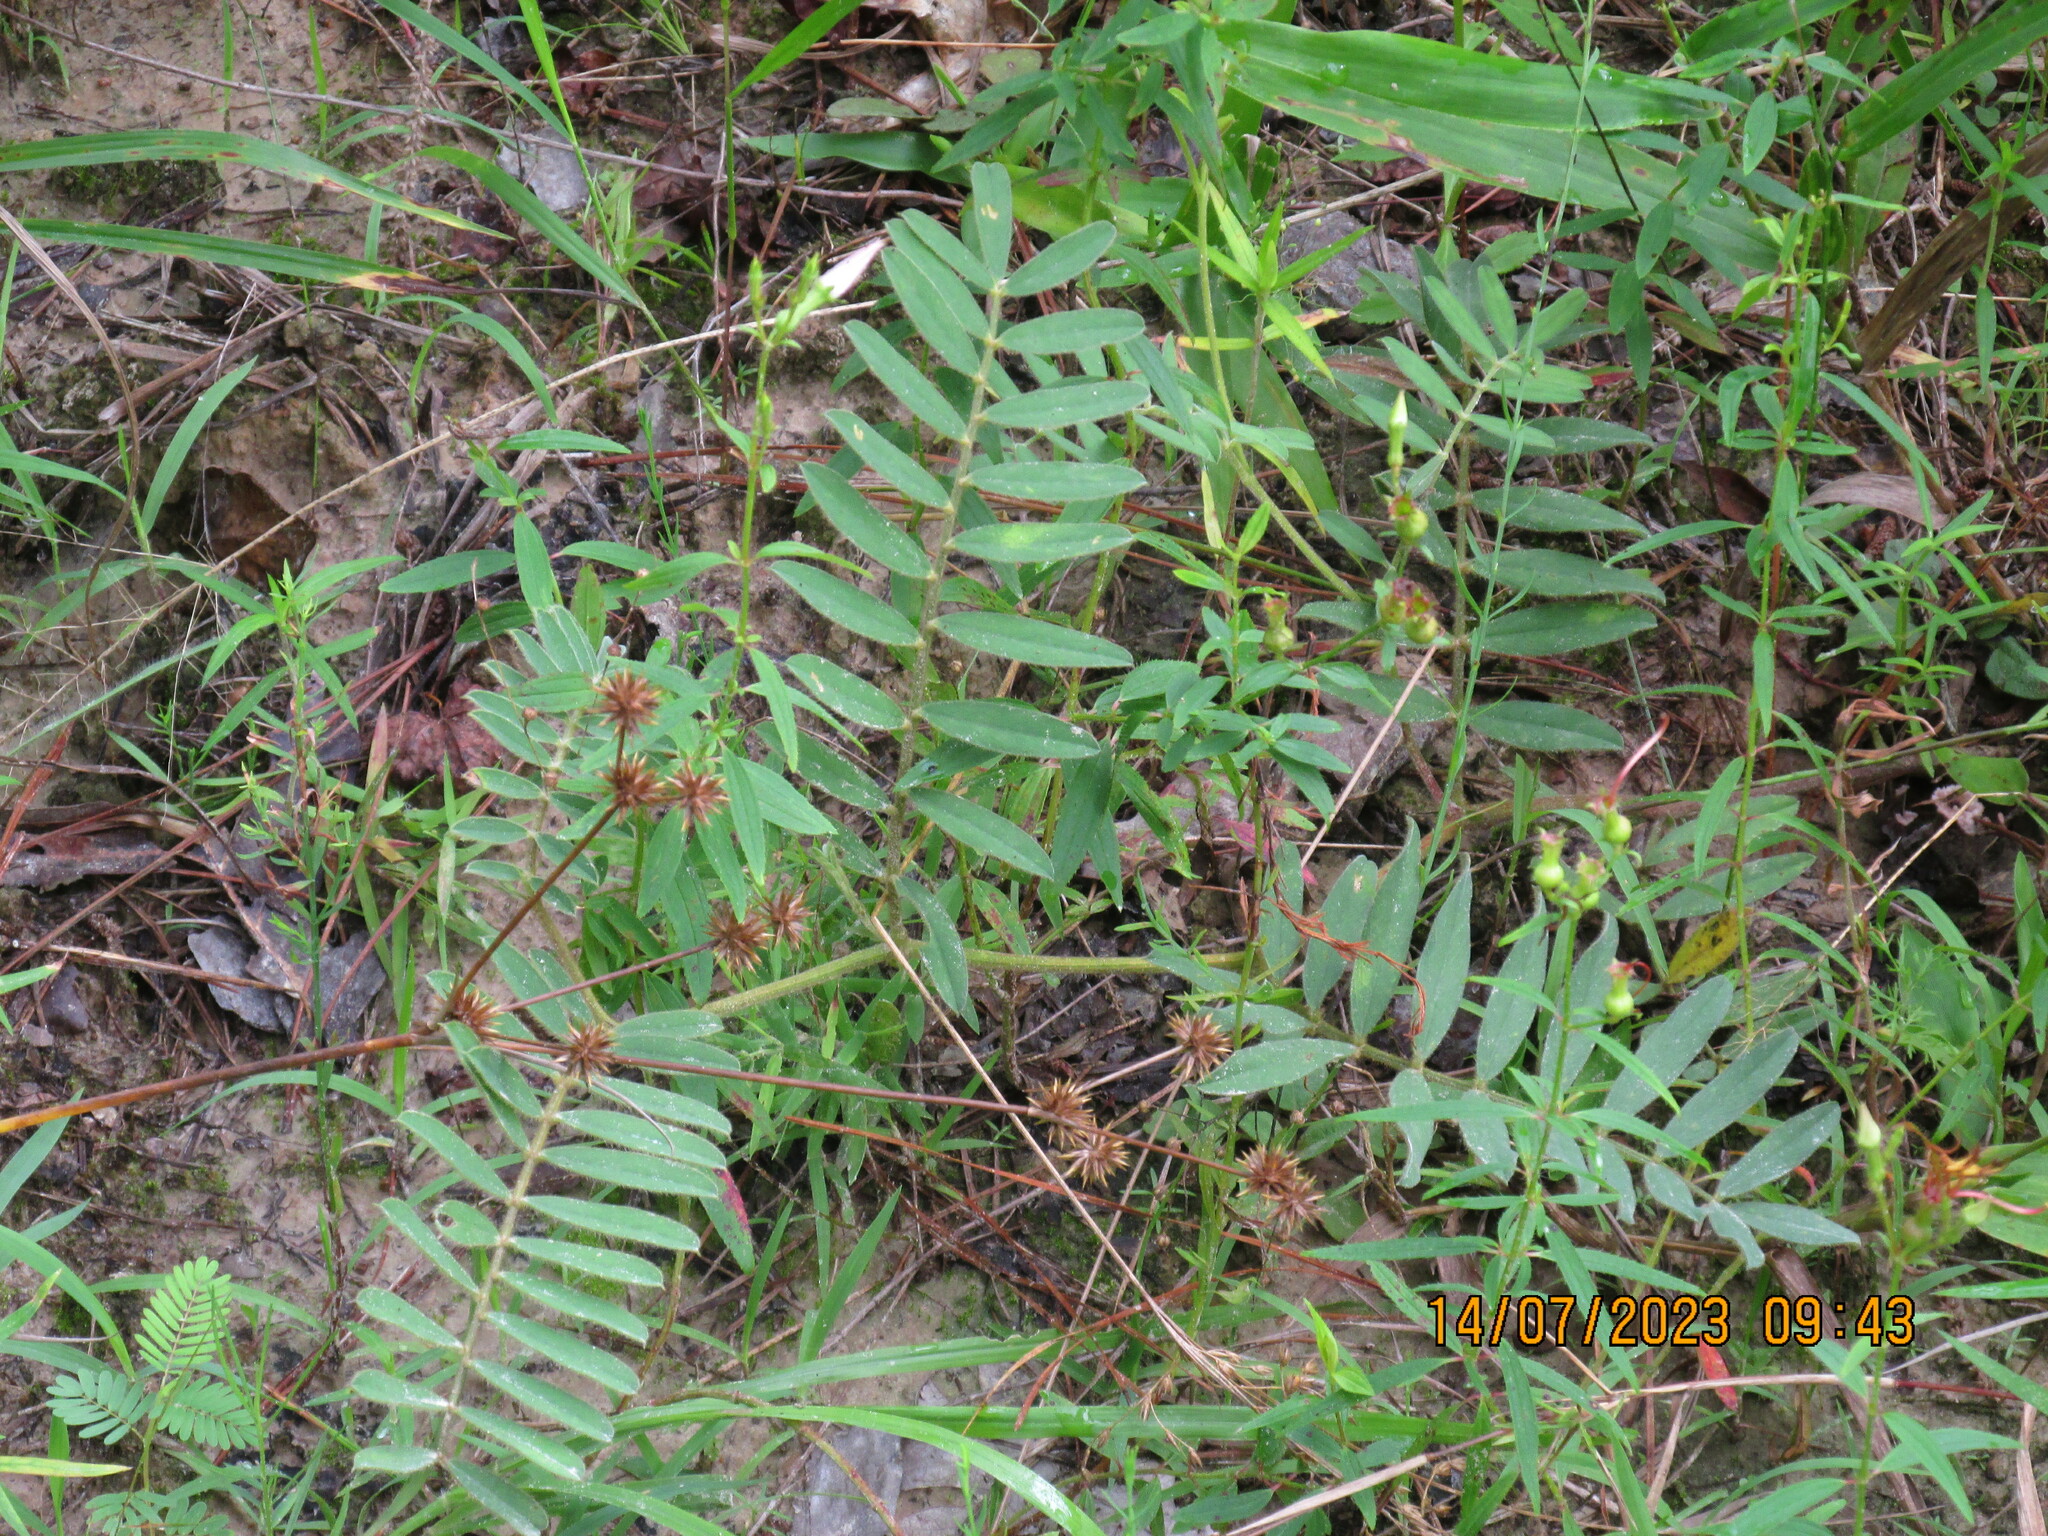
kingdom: Plantae
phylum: Tracheophyta
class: Magnoliopsida
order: Fabales
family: Fabaceae
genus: Tephrosia
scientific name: Tephrosia onobrychoides
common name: Multi-bloom hoary-pea
